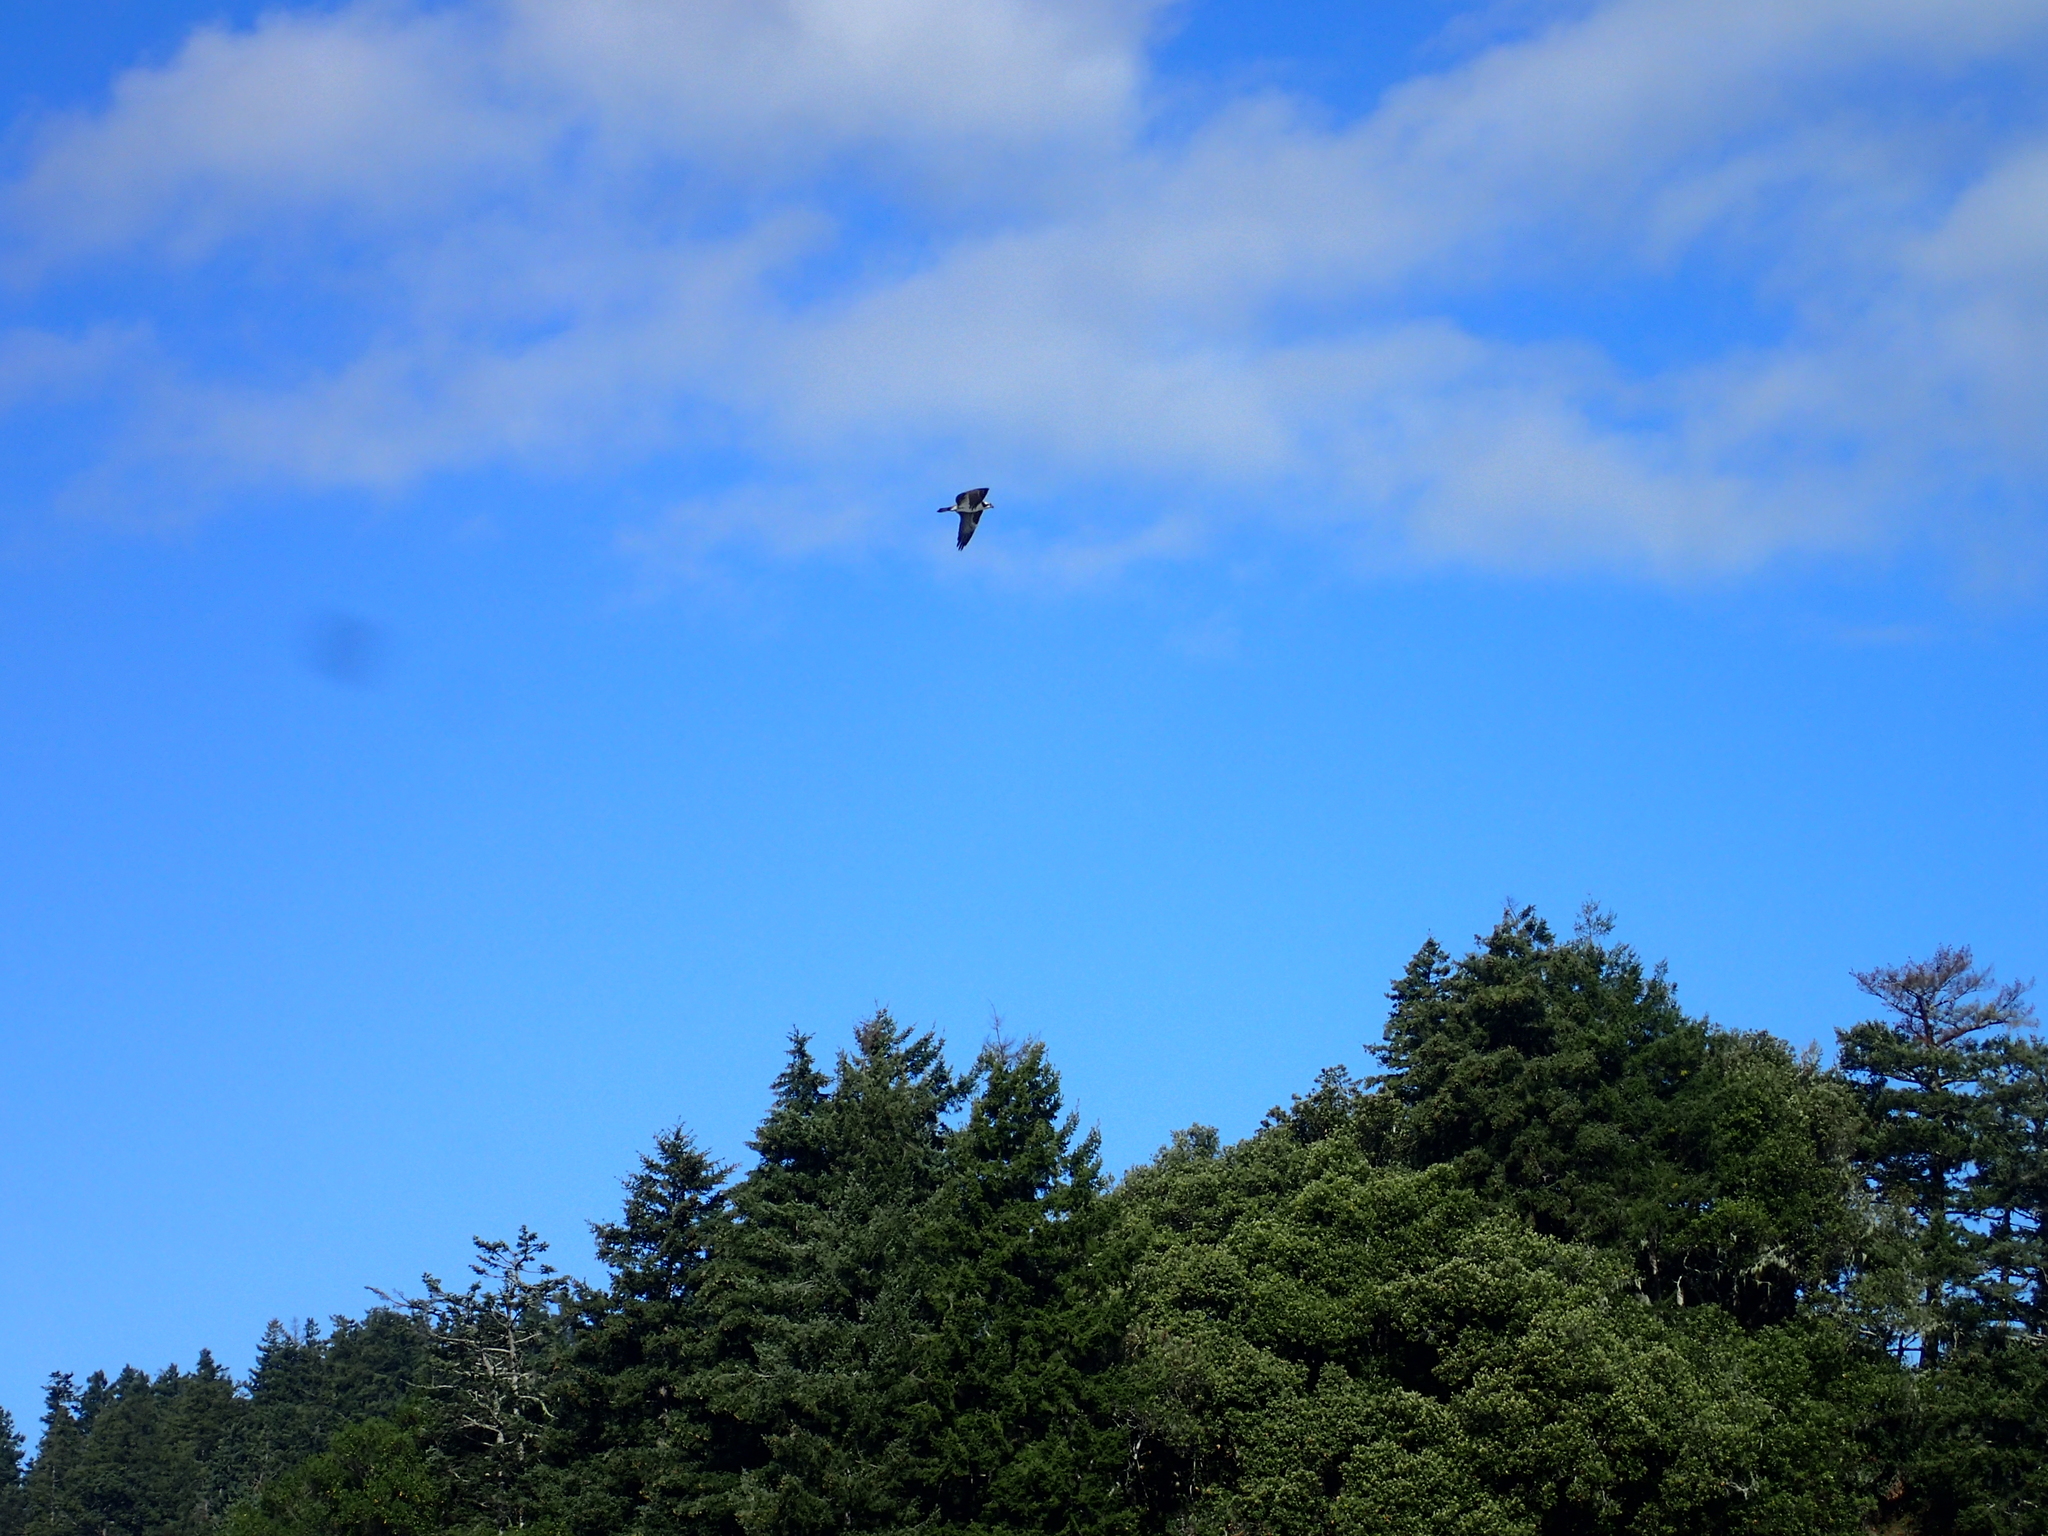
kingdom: Animalia
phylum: Chordata
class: Aves
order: Accipitriformes
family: Pandionidae
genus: Pandion
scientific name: Pandion haliaetus
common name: Osprey
